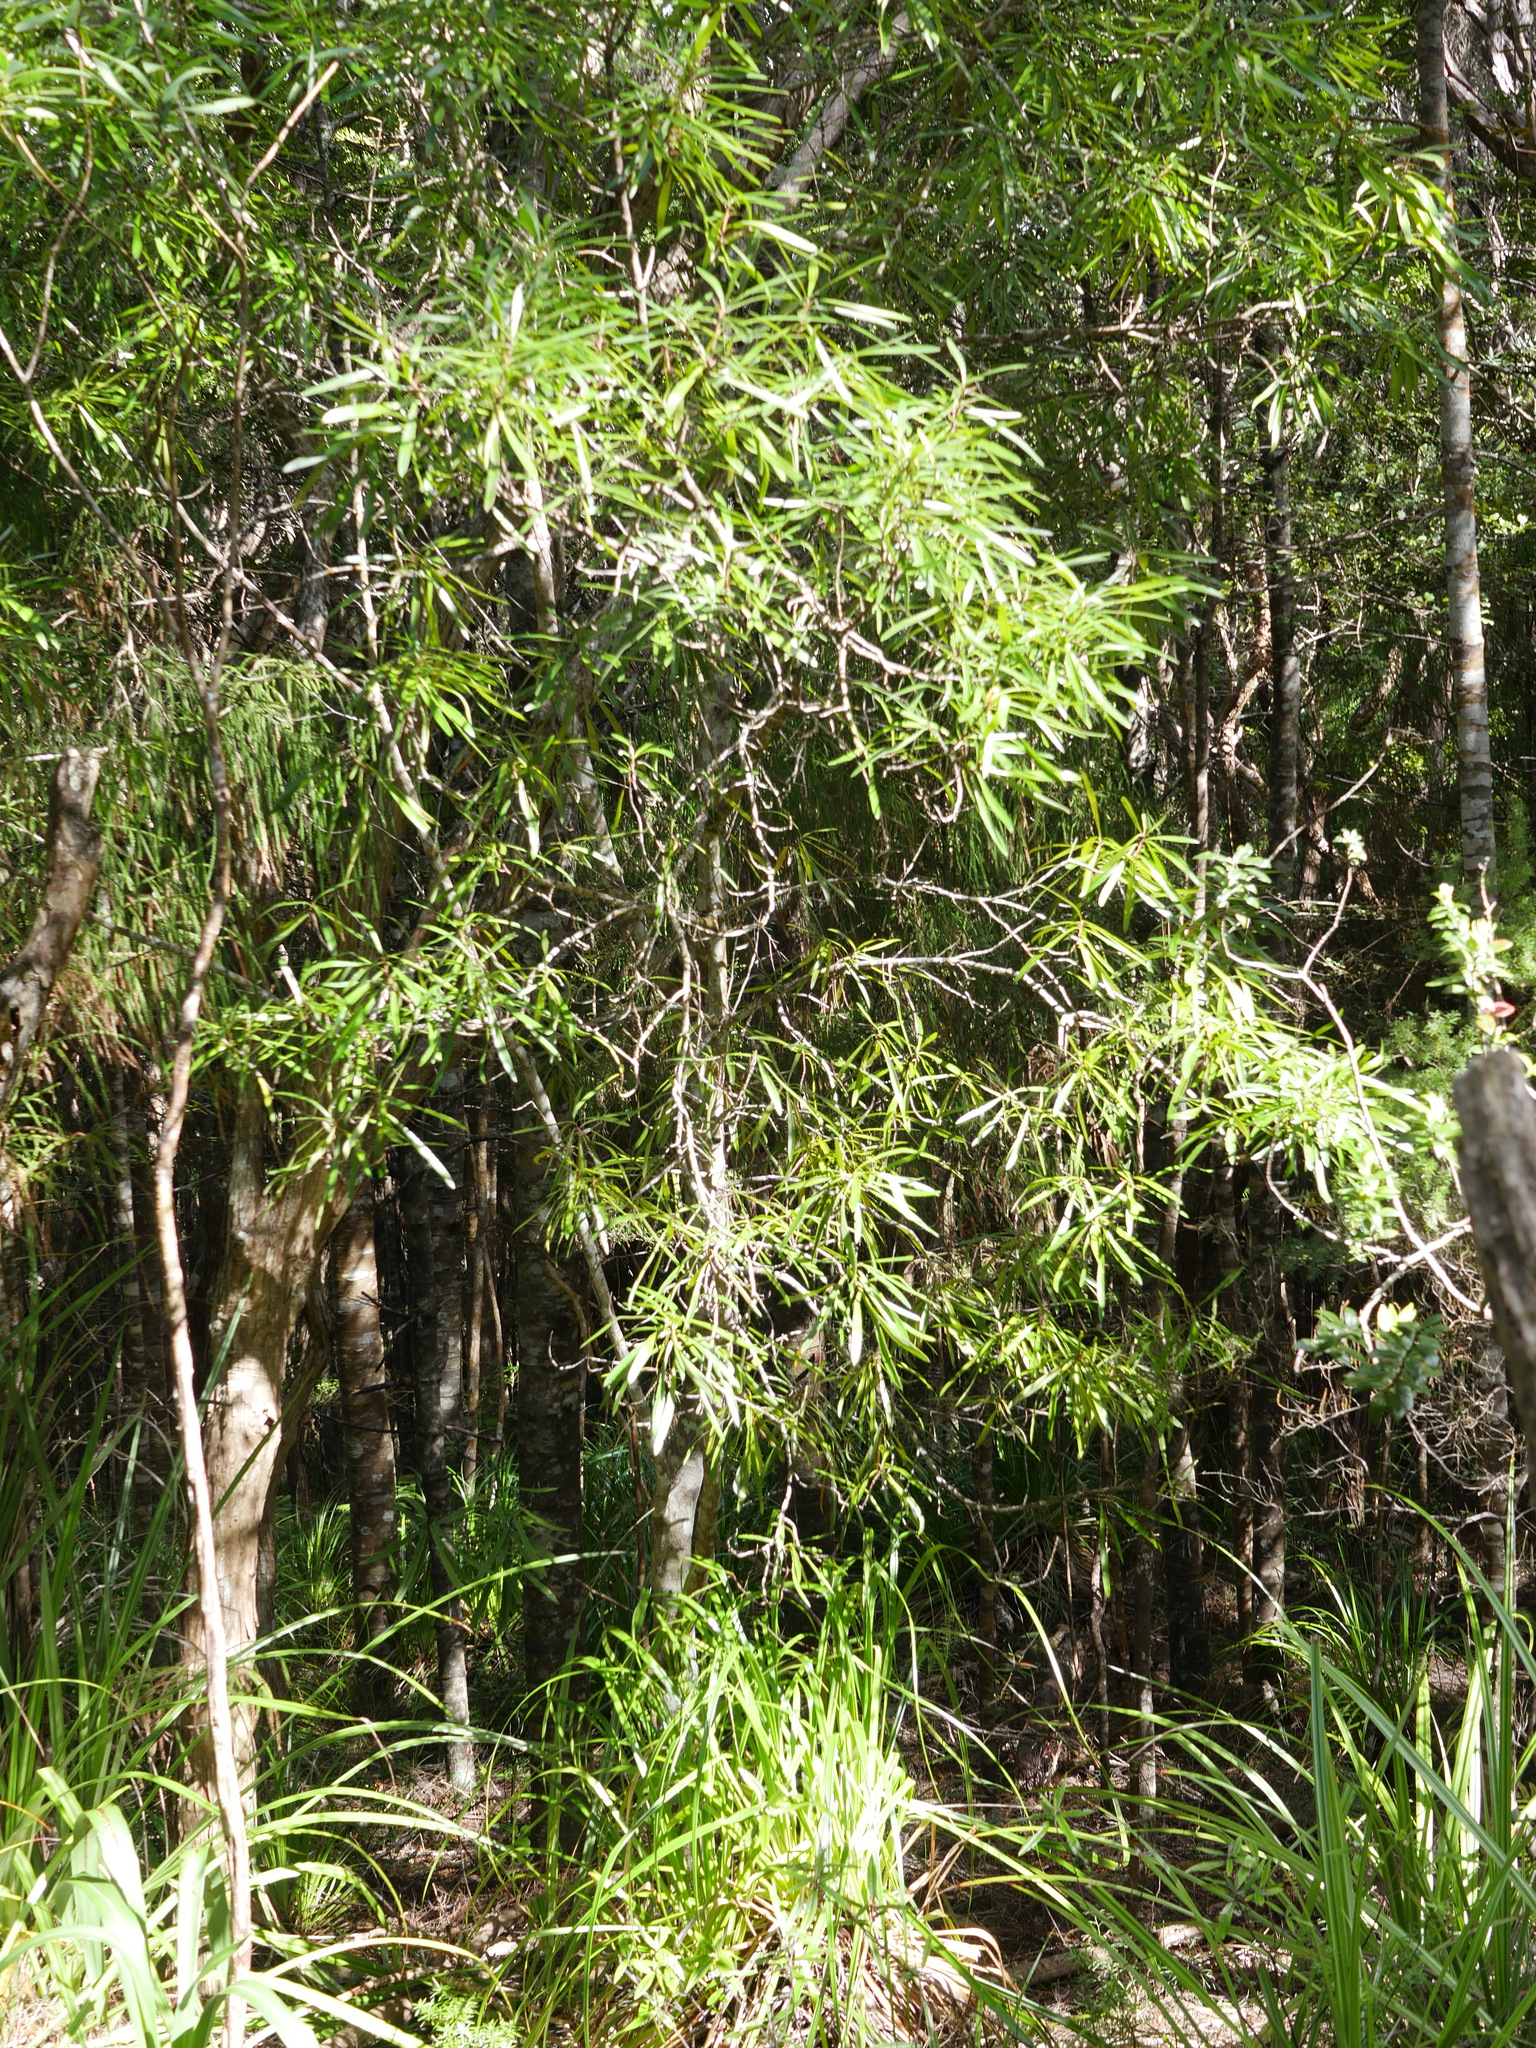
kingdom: Plantae
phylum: Tracheophyta
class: Magnoliopsida
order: Proteales
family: Proteaceae
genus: Toronia
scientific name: Toronia toru
